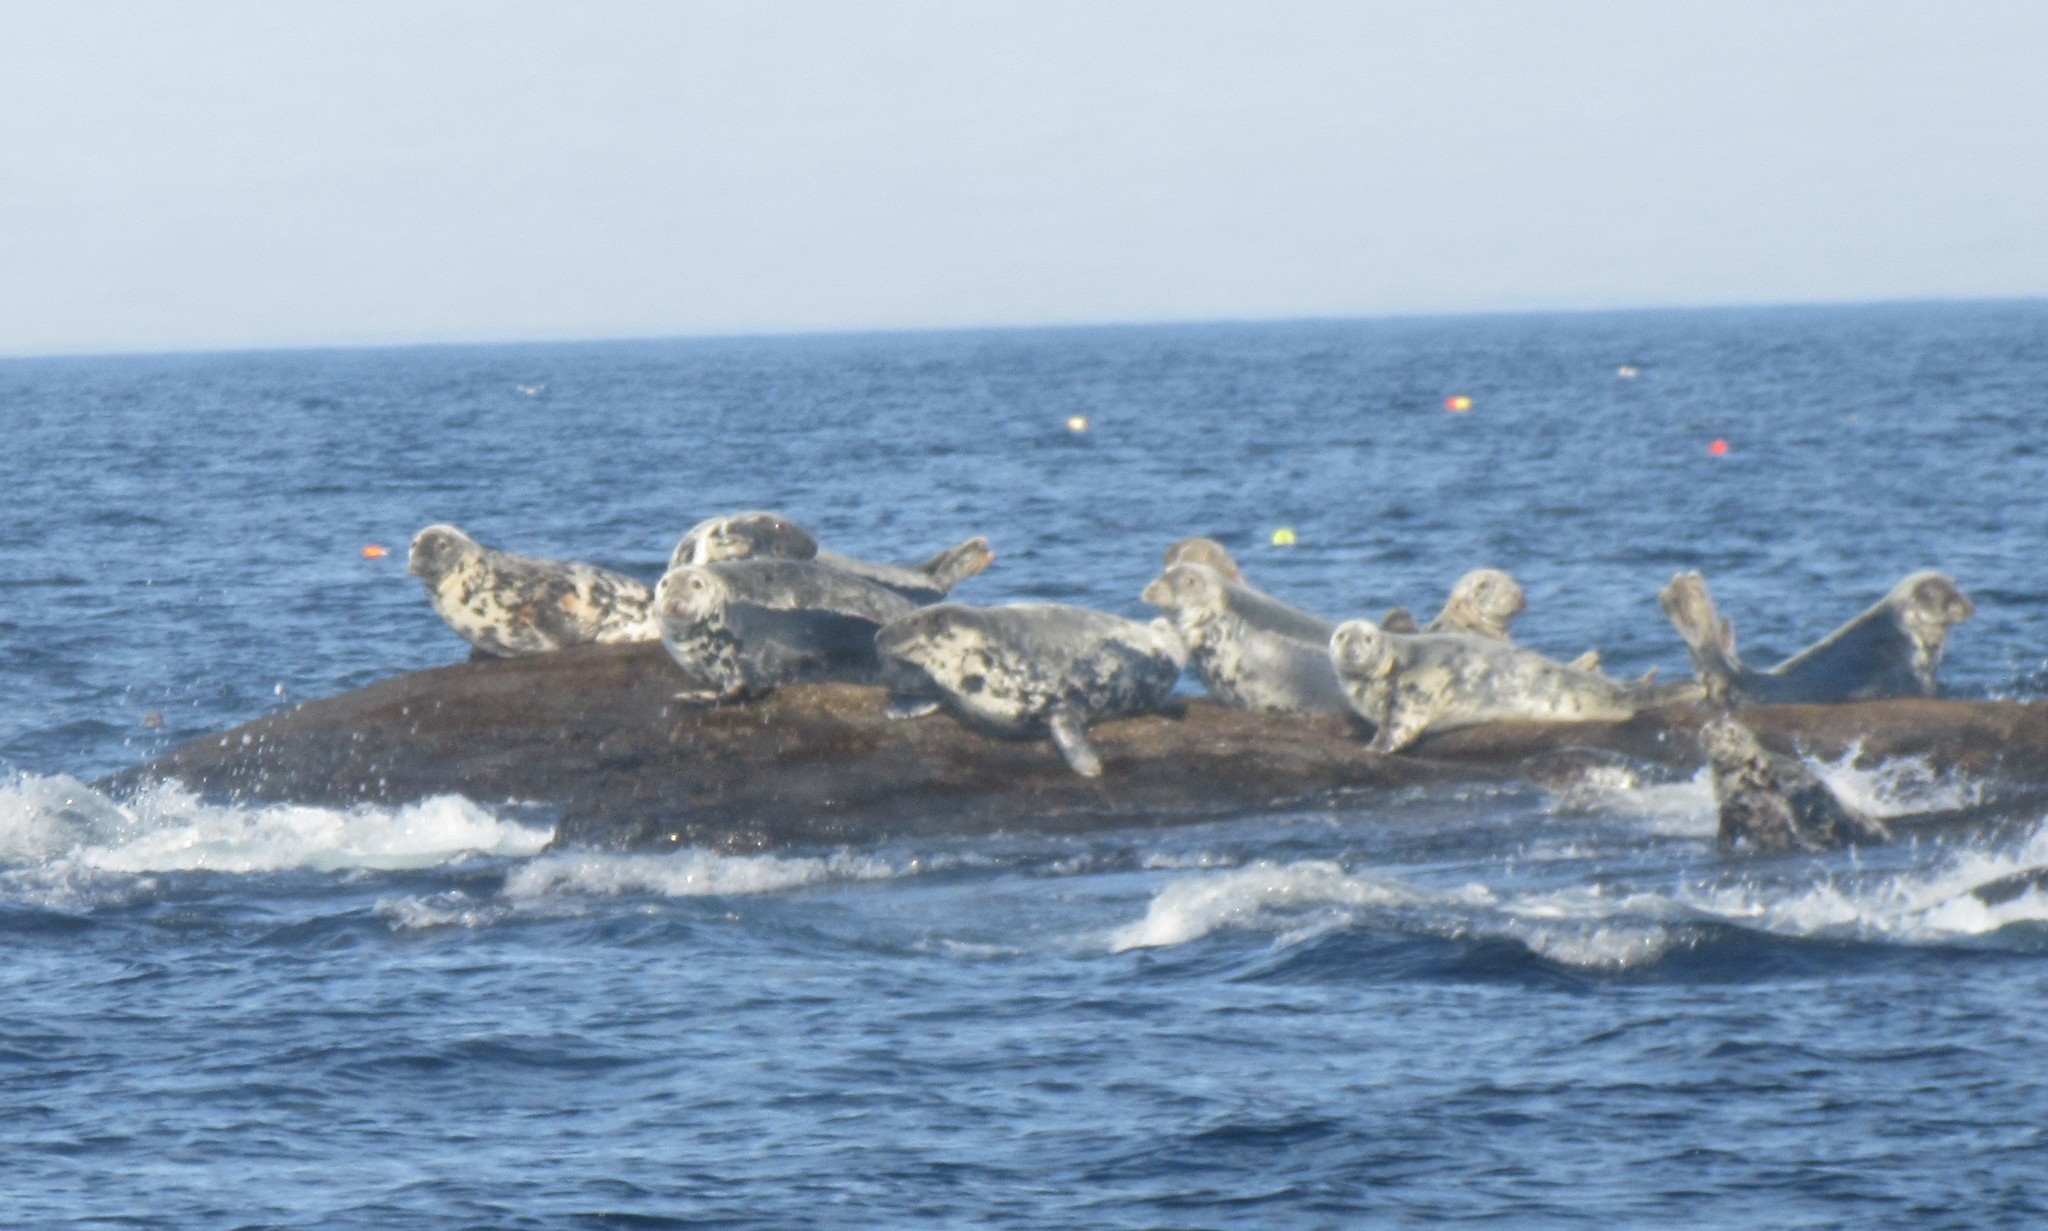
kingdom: Animalia
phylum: Chordata
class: Mammalia
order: Carnivora
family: Phocidae
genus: Halichoerus
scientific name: Halichoerus grypus
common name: Grey seal
